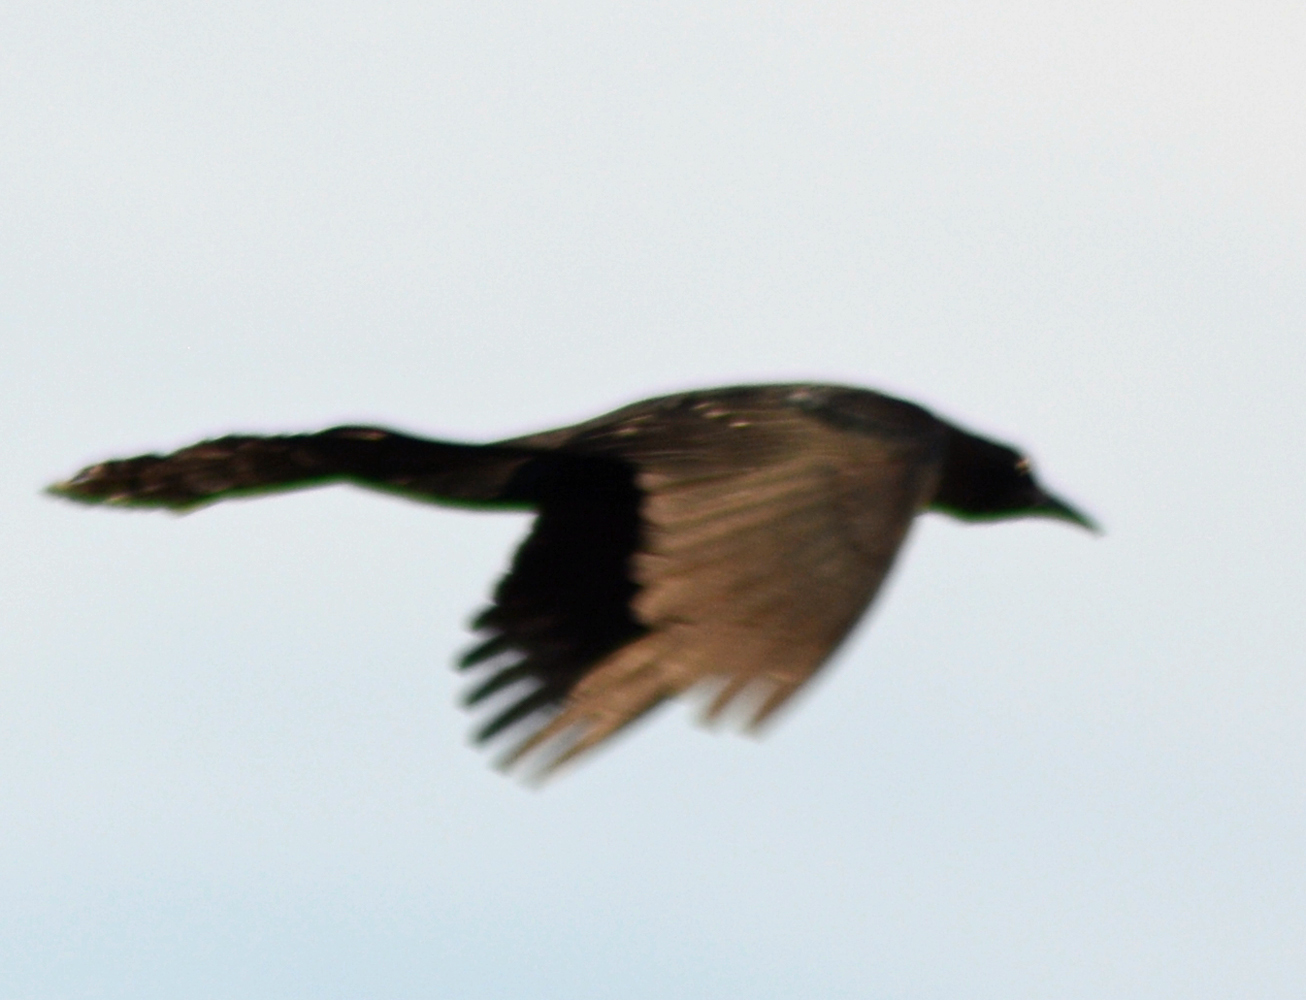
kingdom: Animalia
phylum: Chordata
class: Aves
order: Passeriformes
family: Icteridae
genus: Quiscalus
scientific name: Quiscalus mexicanus
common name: Great-tailed grackle
